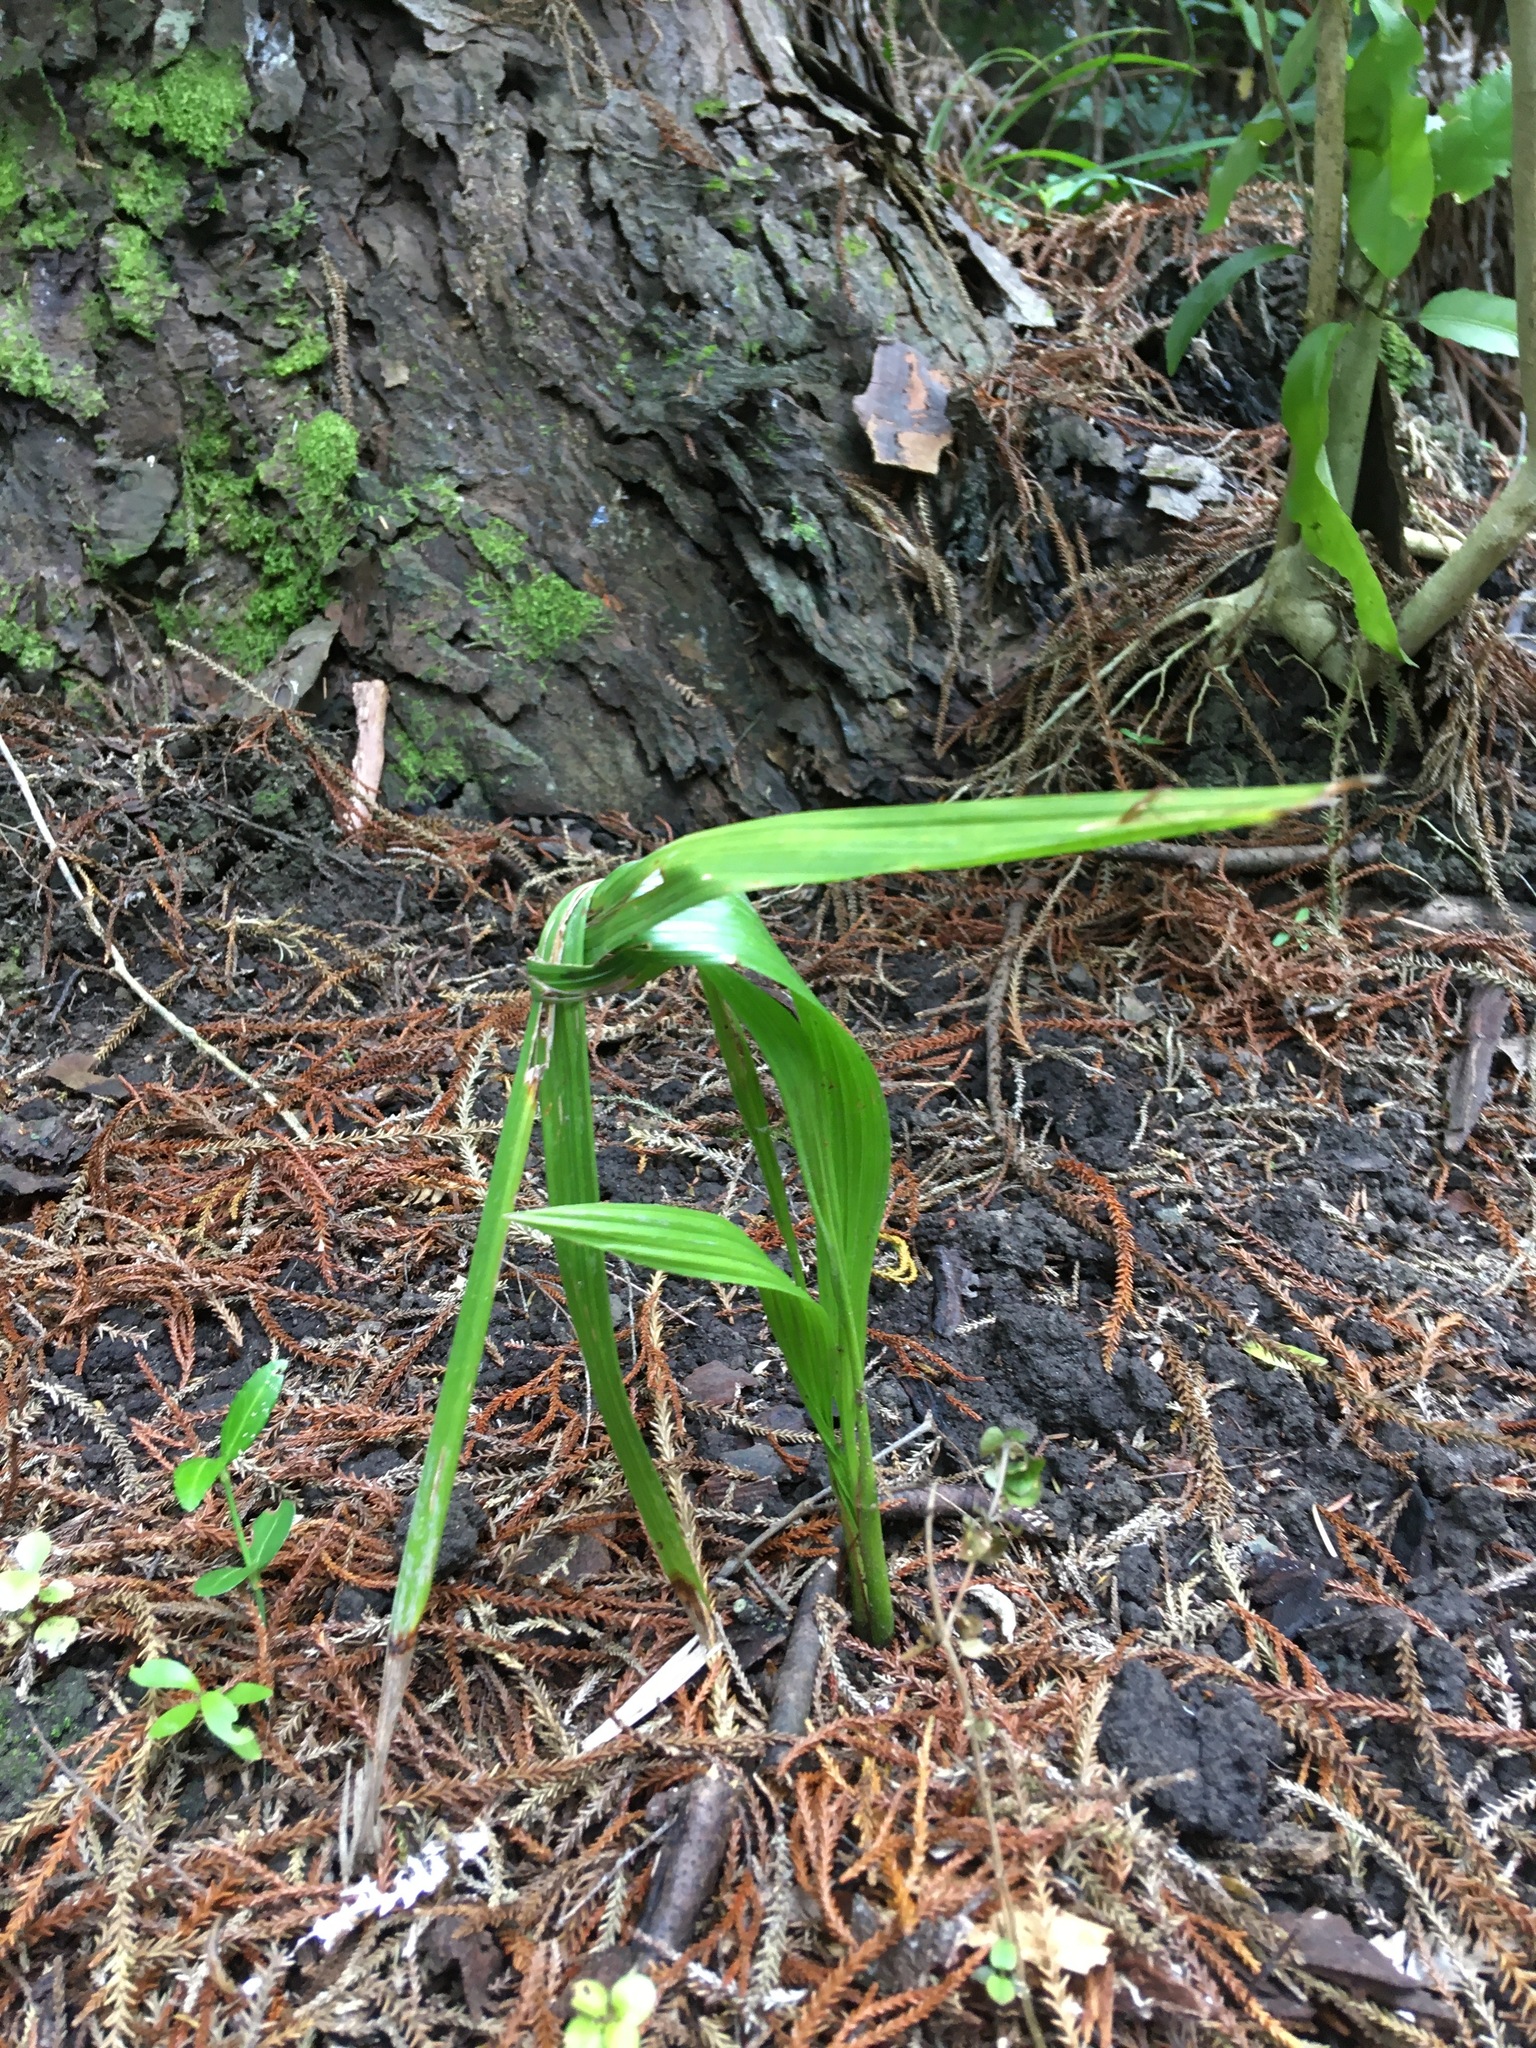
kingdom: Plantae
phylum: Tracheophyta
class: Liliopsida
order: Arecales
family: Arecaceae
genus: Phoenix
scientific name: Phoenix canariensis
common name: Canary island date palm
